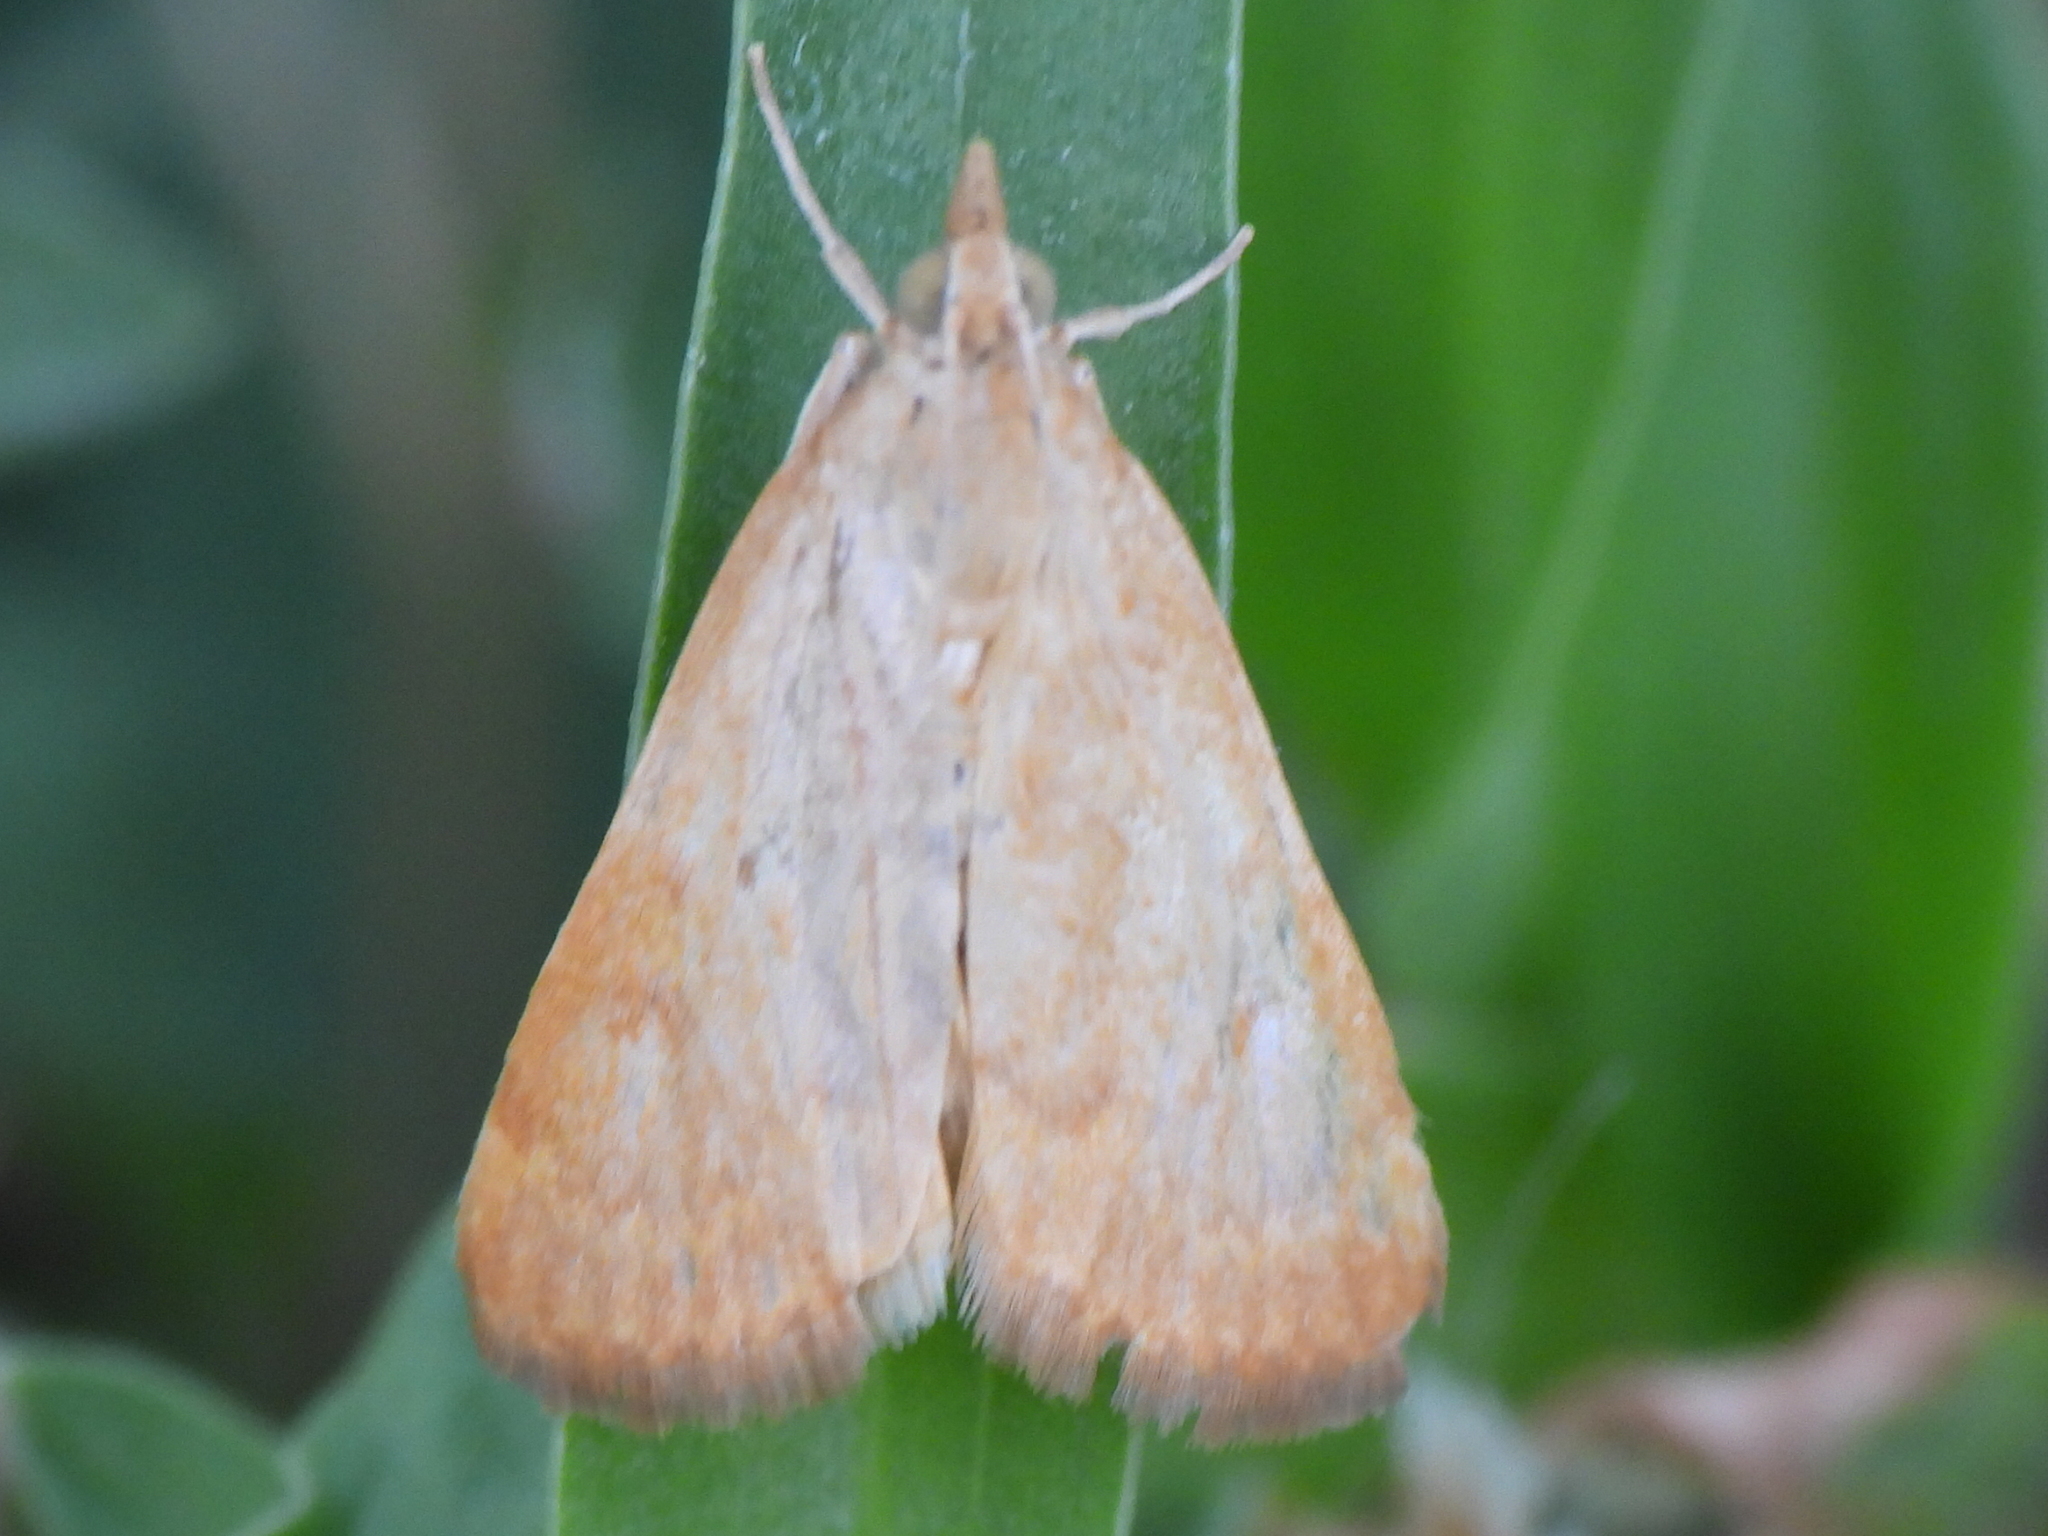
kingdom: Animalia
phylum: Arthropoda
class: Insecta
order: Lepidoptera
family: Crambidae
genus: Achyra
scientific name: Achyra rantalis
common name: Garden webworm
